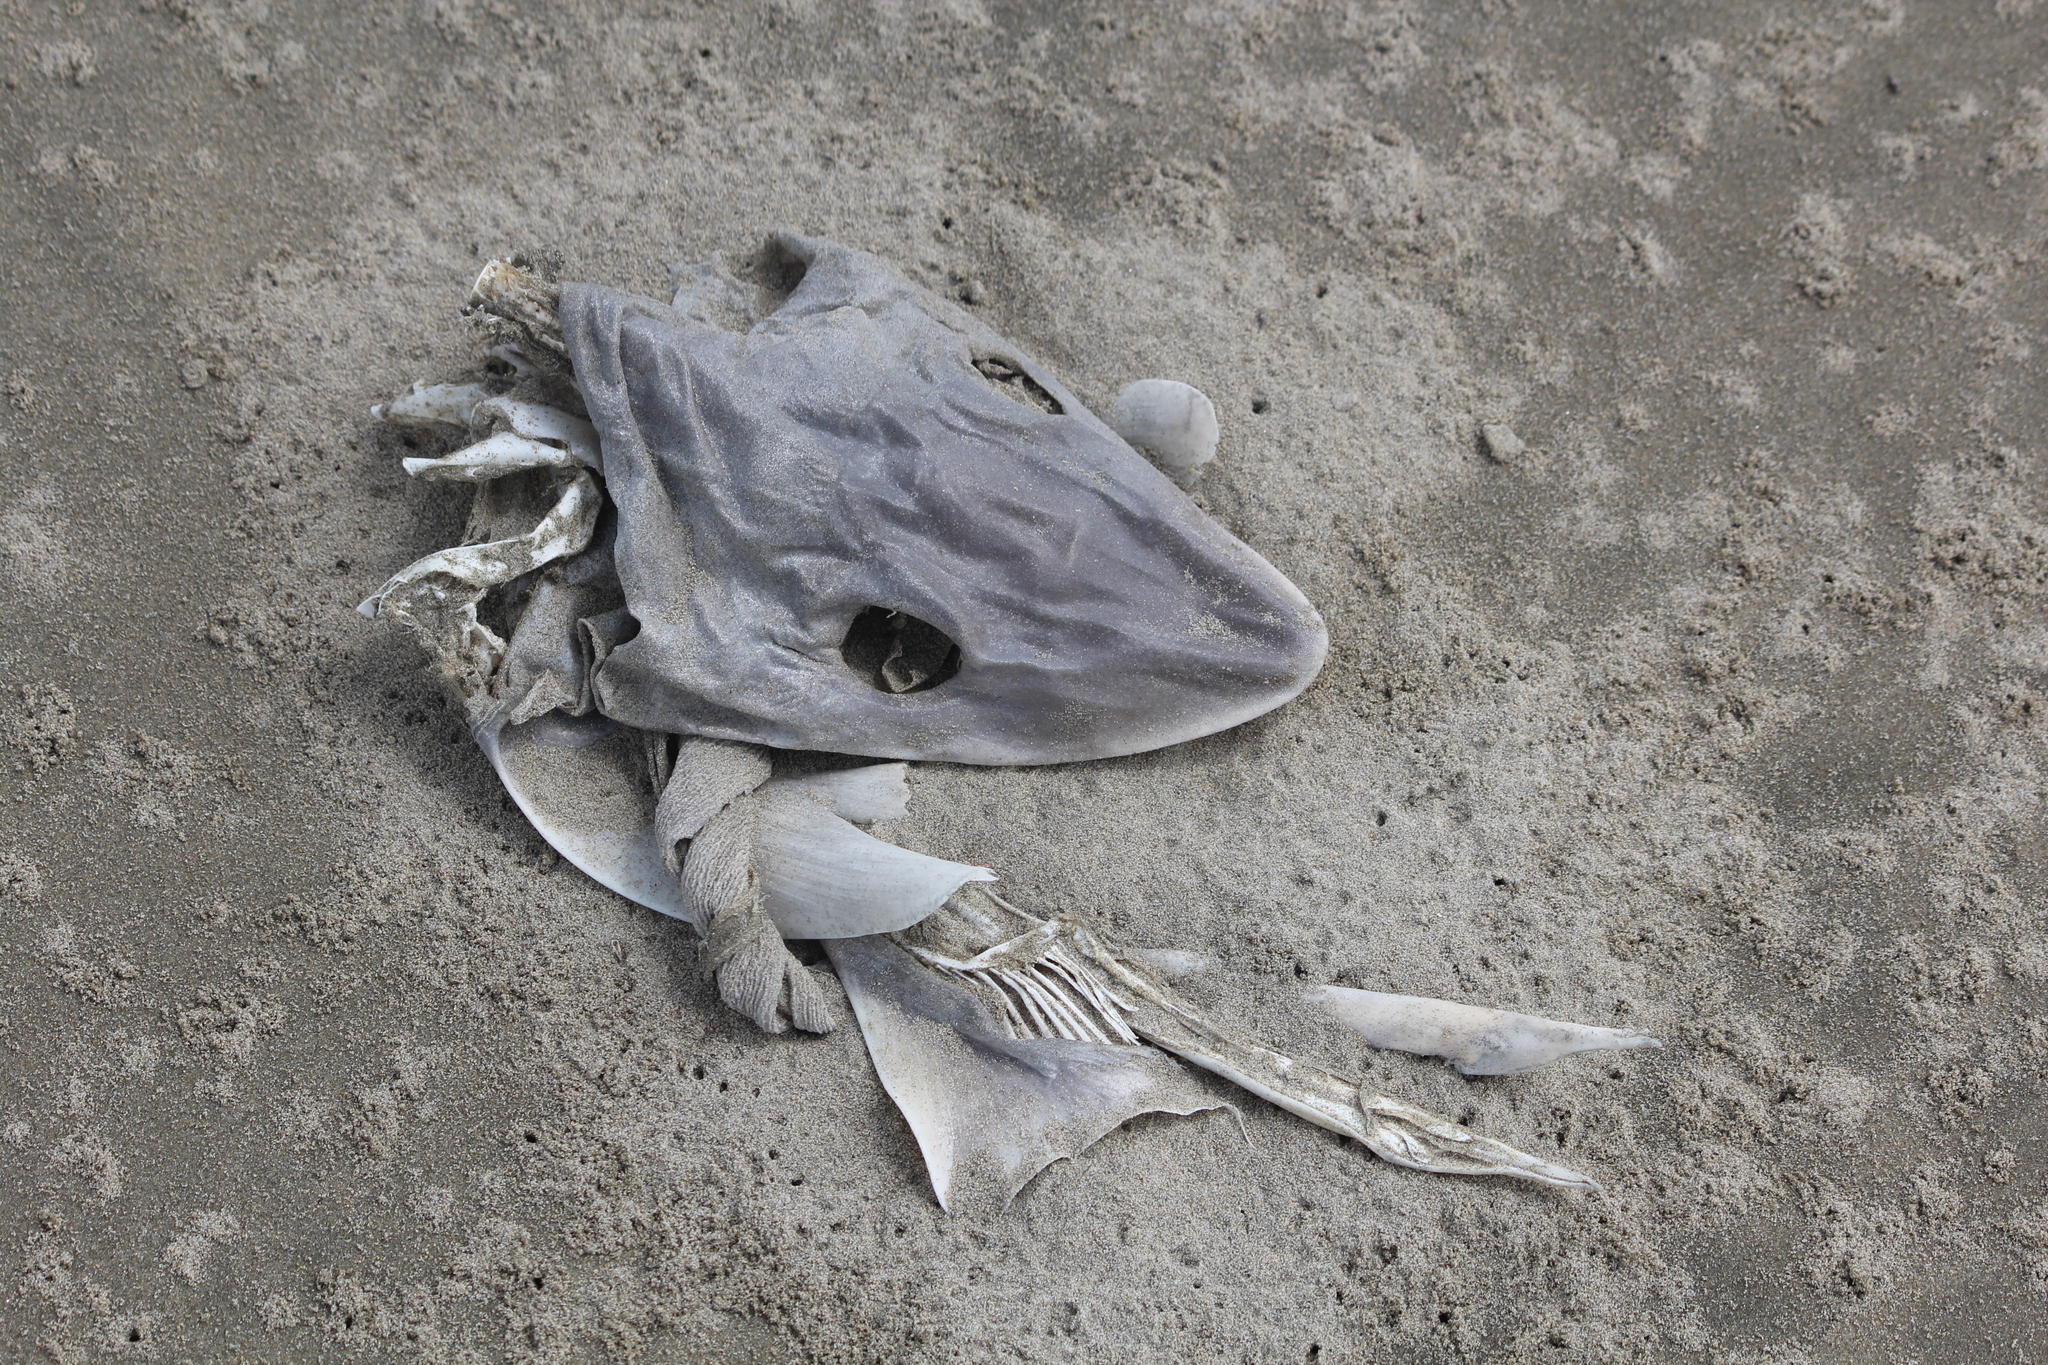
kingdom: Animalia
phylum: Chordata
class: Elasmobranchii
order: Carcharhiniformes
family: Triakidae
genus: Mustelus
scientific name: Mustelus lenticulatus
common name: Gummy shark
